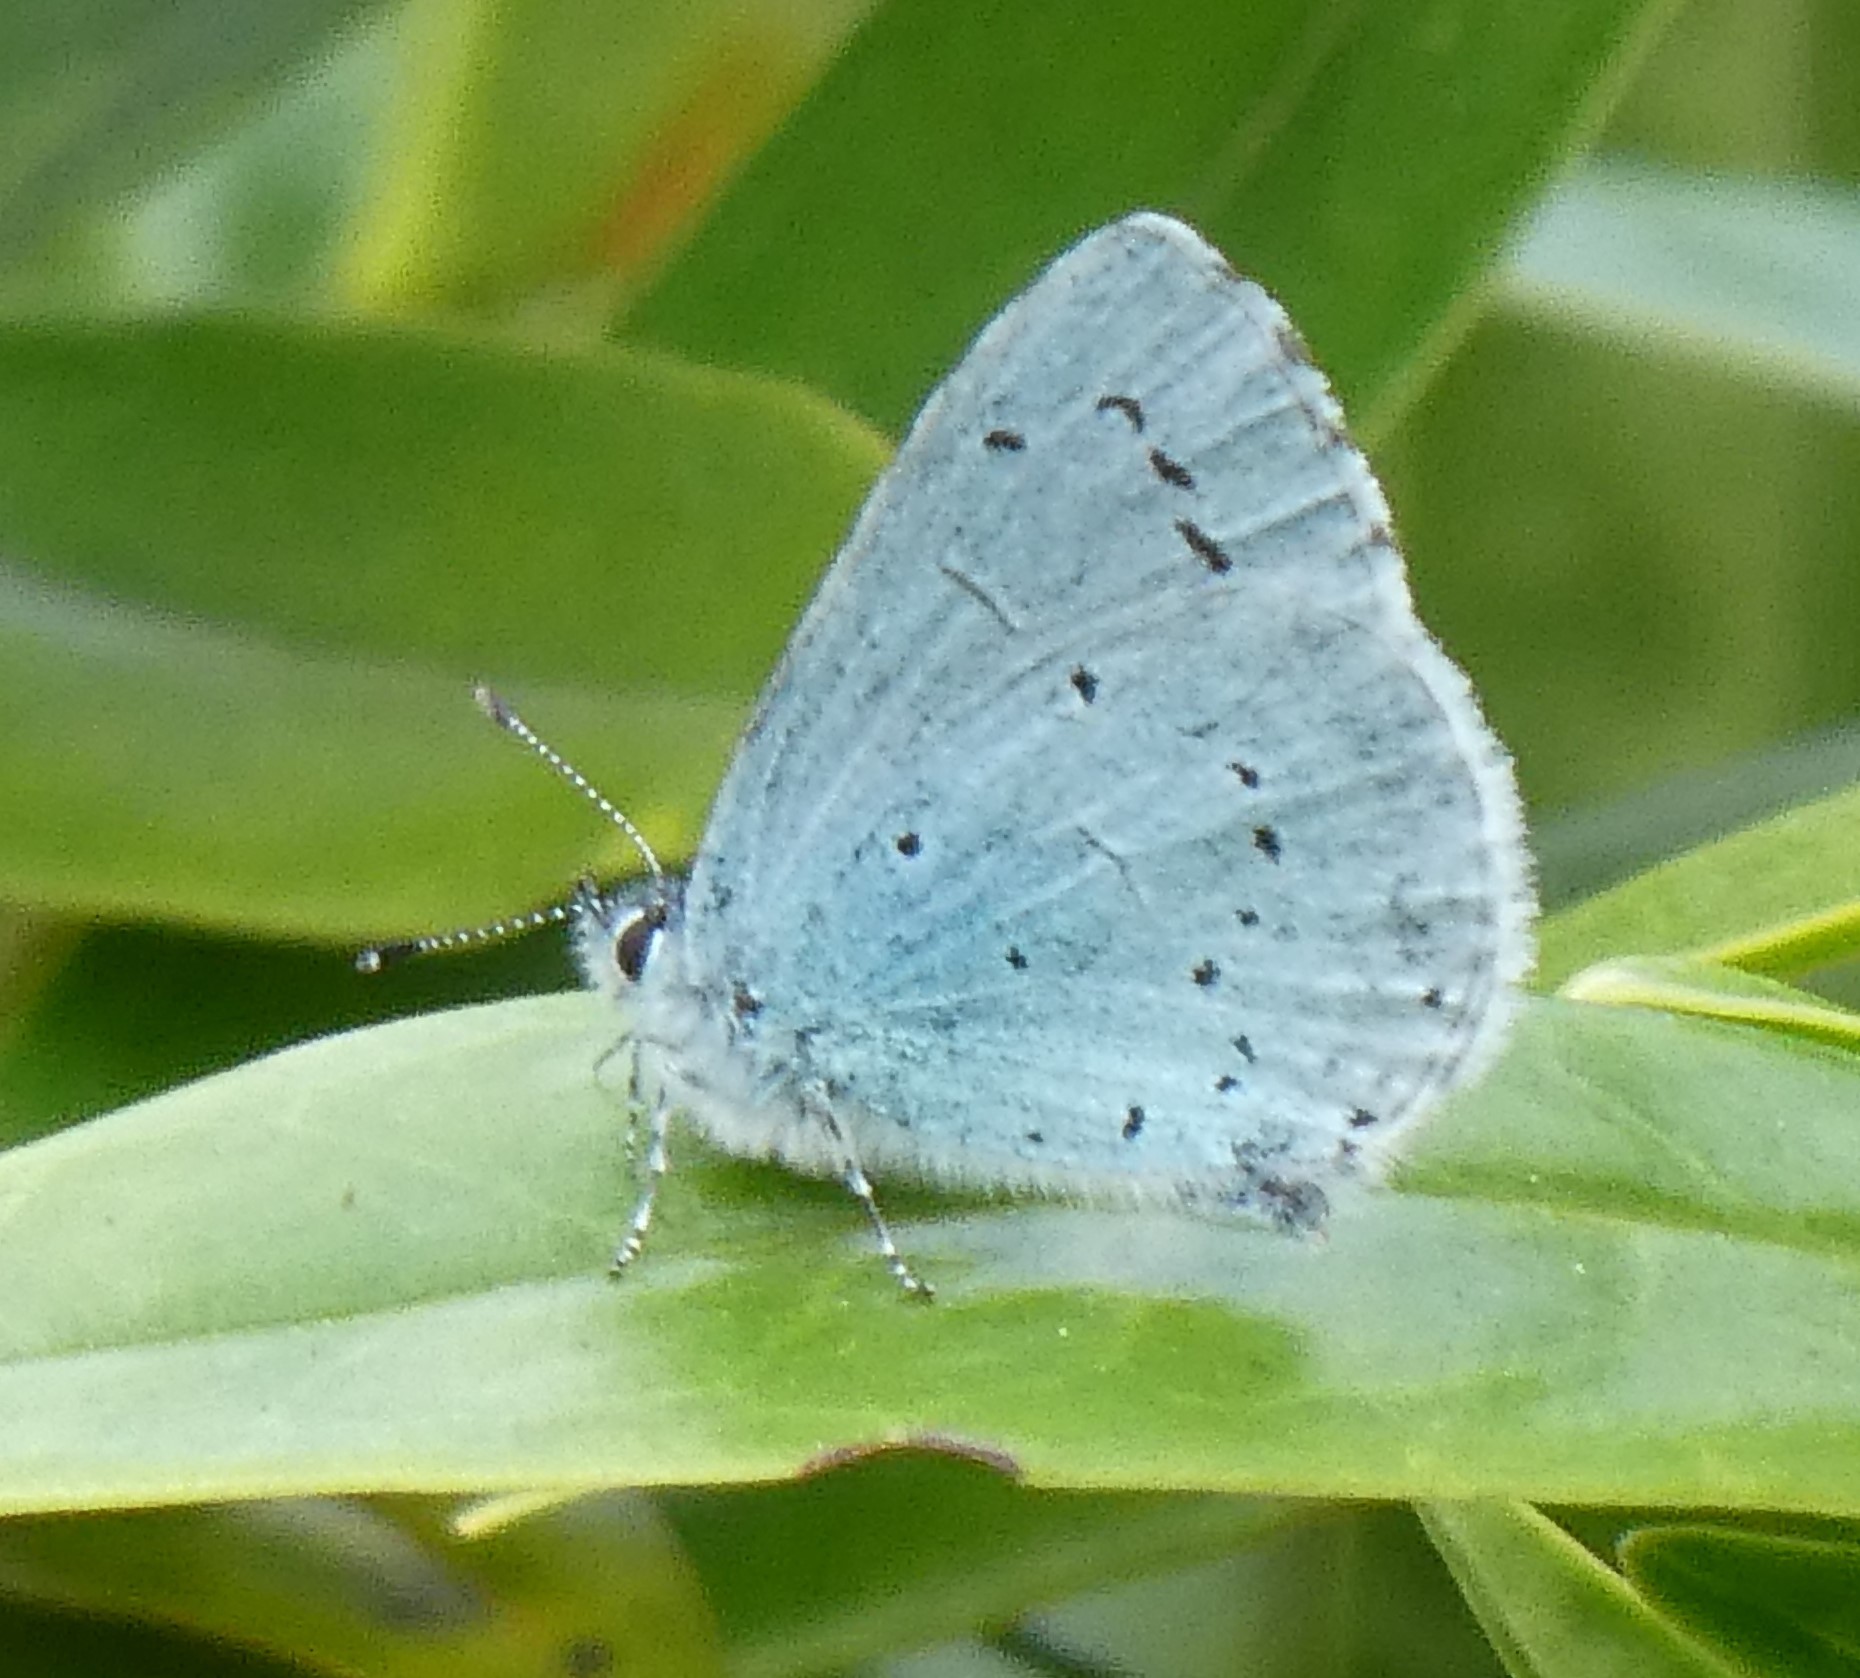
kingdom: Animalia
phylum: Arthropoda
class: Insecta
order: Lepidoptera
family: Lycaenidae
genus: Celastrina
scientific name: Celastrina argiolus
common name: Holly blue
